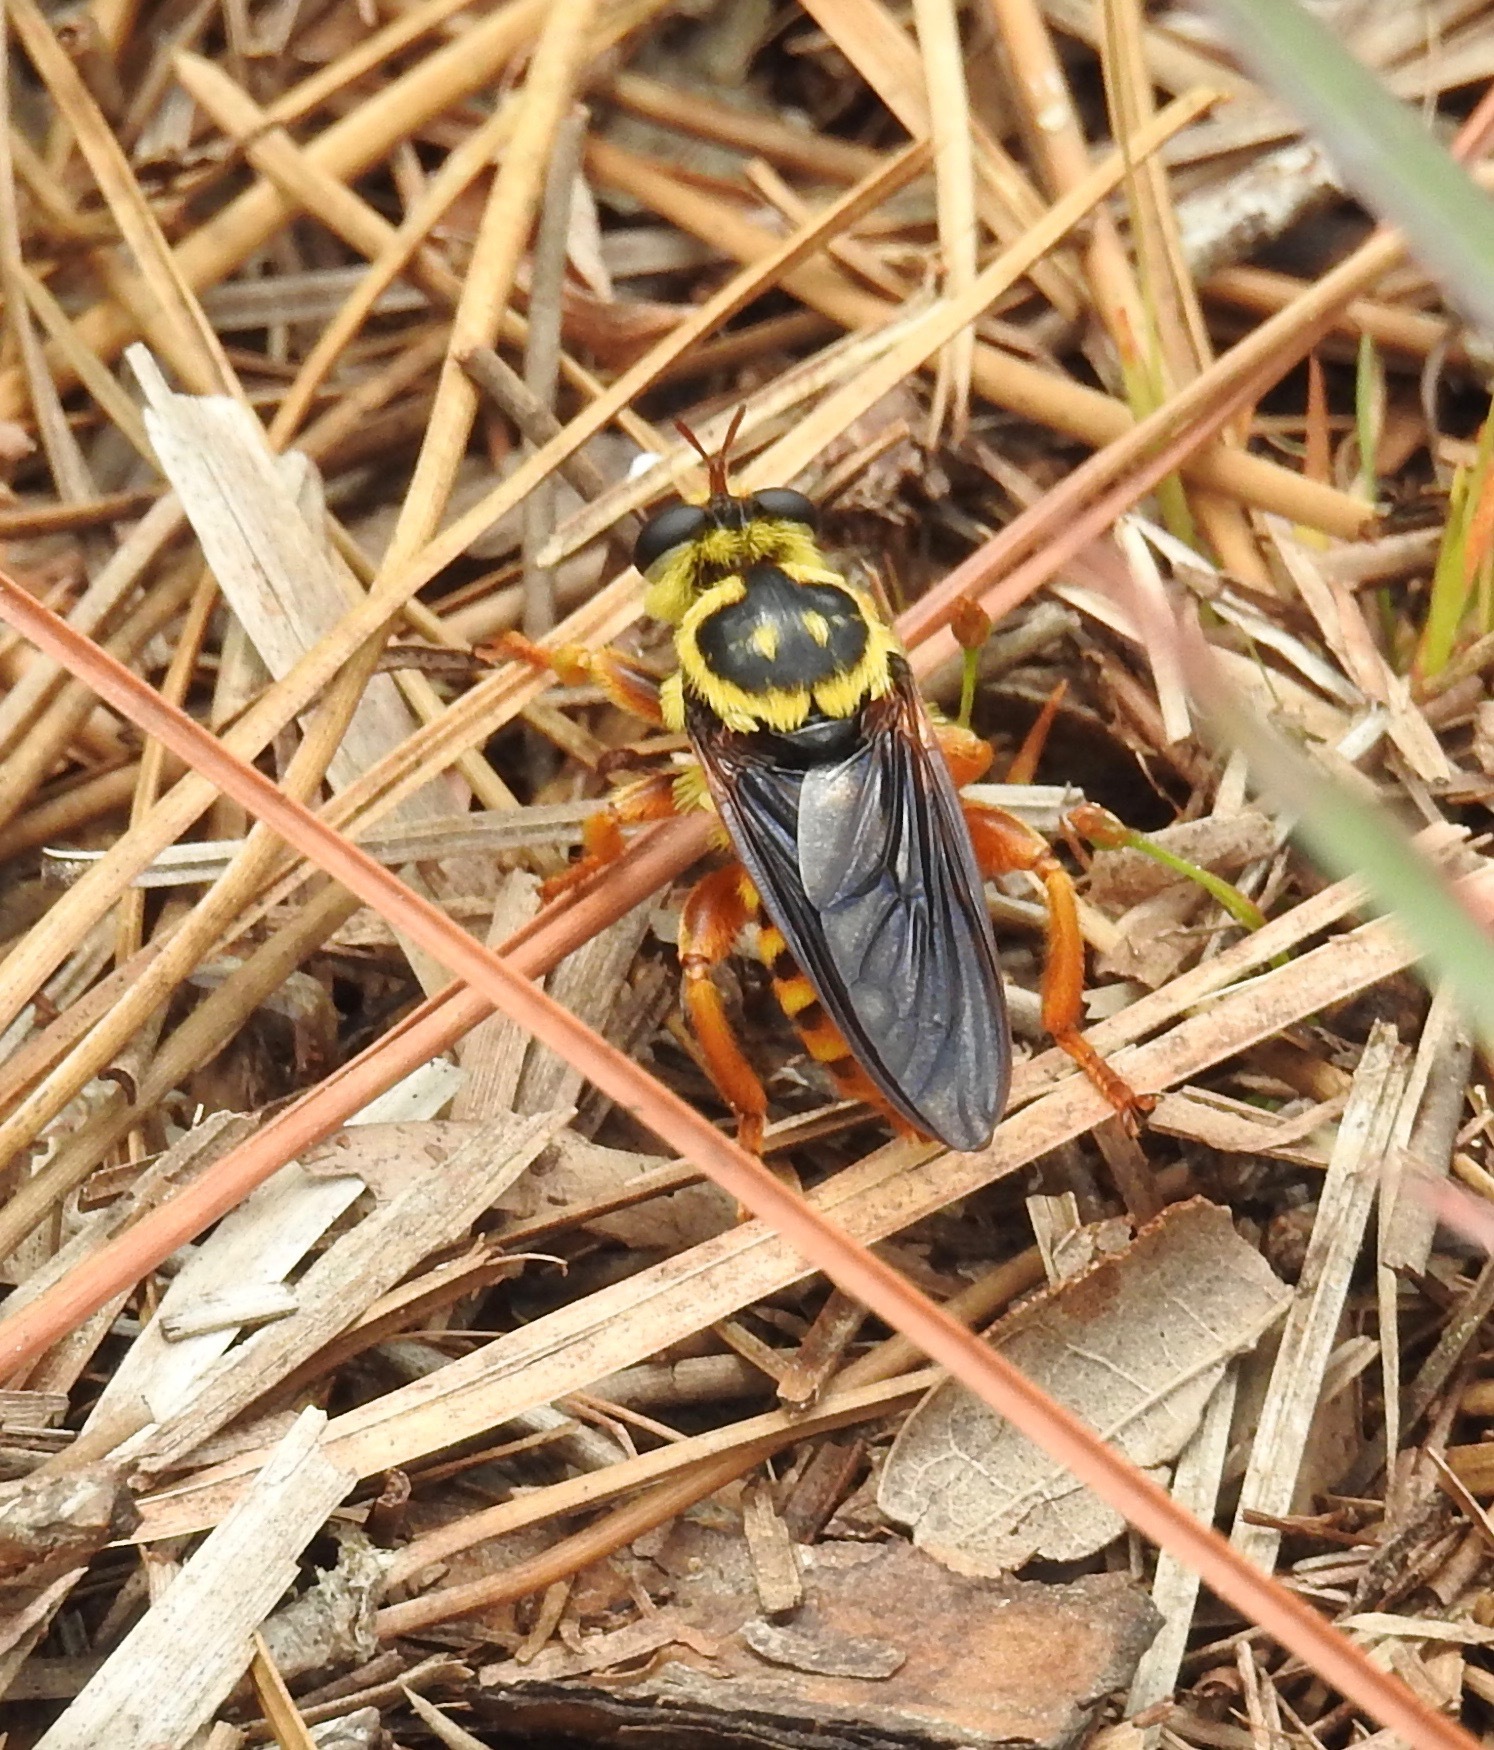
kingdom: Animalia
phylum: Arthropoda
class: Insecta
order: Diptera
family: Asilidae
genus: Laphria
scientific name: Laphria saffrana
